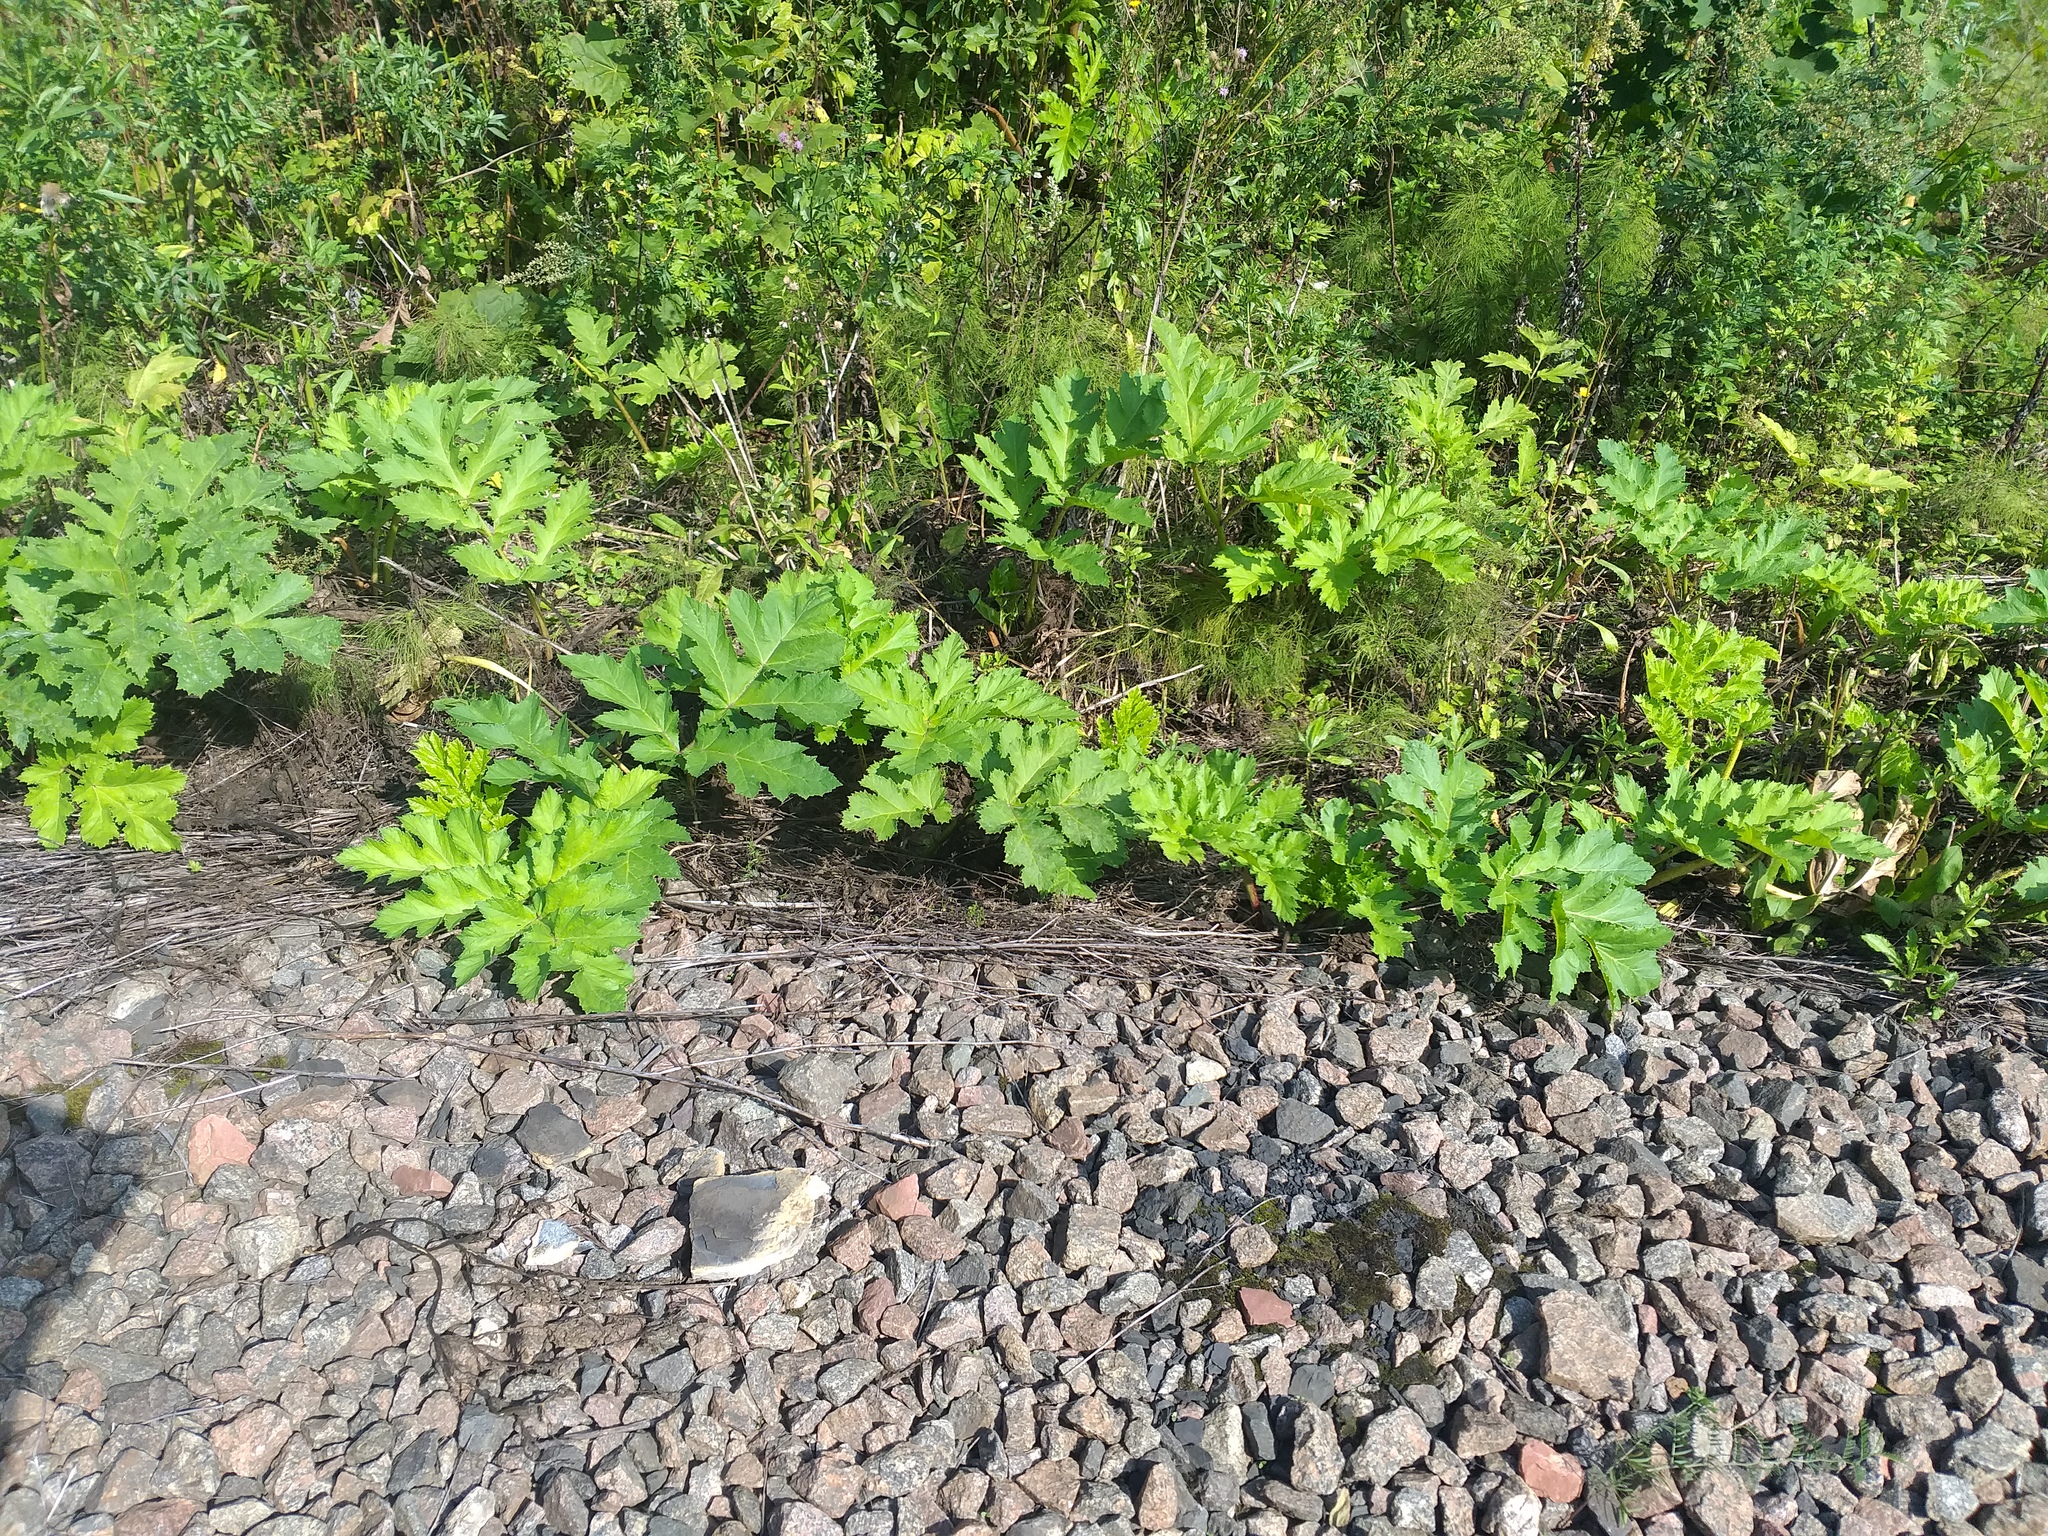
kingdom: Plantae
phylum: Tracheophyta
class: Magnoliopsida
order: Apiales
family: Apiaceae
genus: Heracleum
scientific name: Heracleum sosnowskyi
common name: Sosnowsky's hogweed
